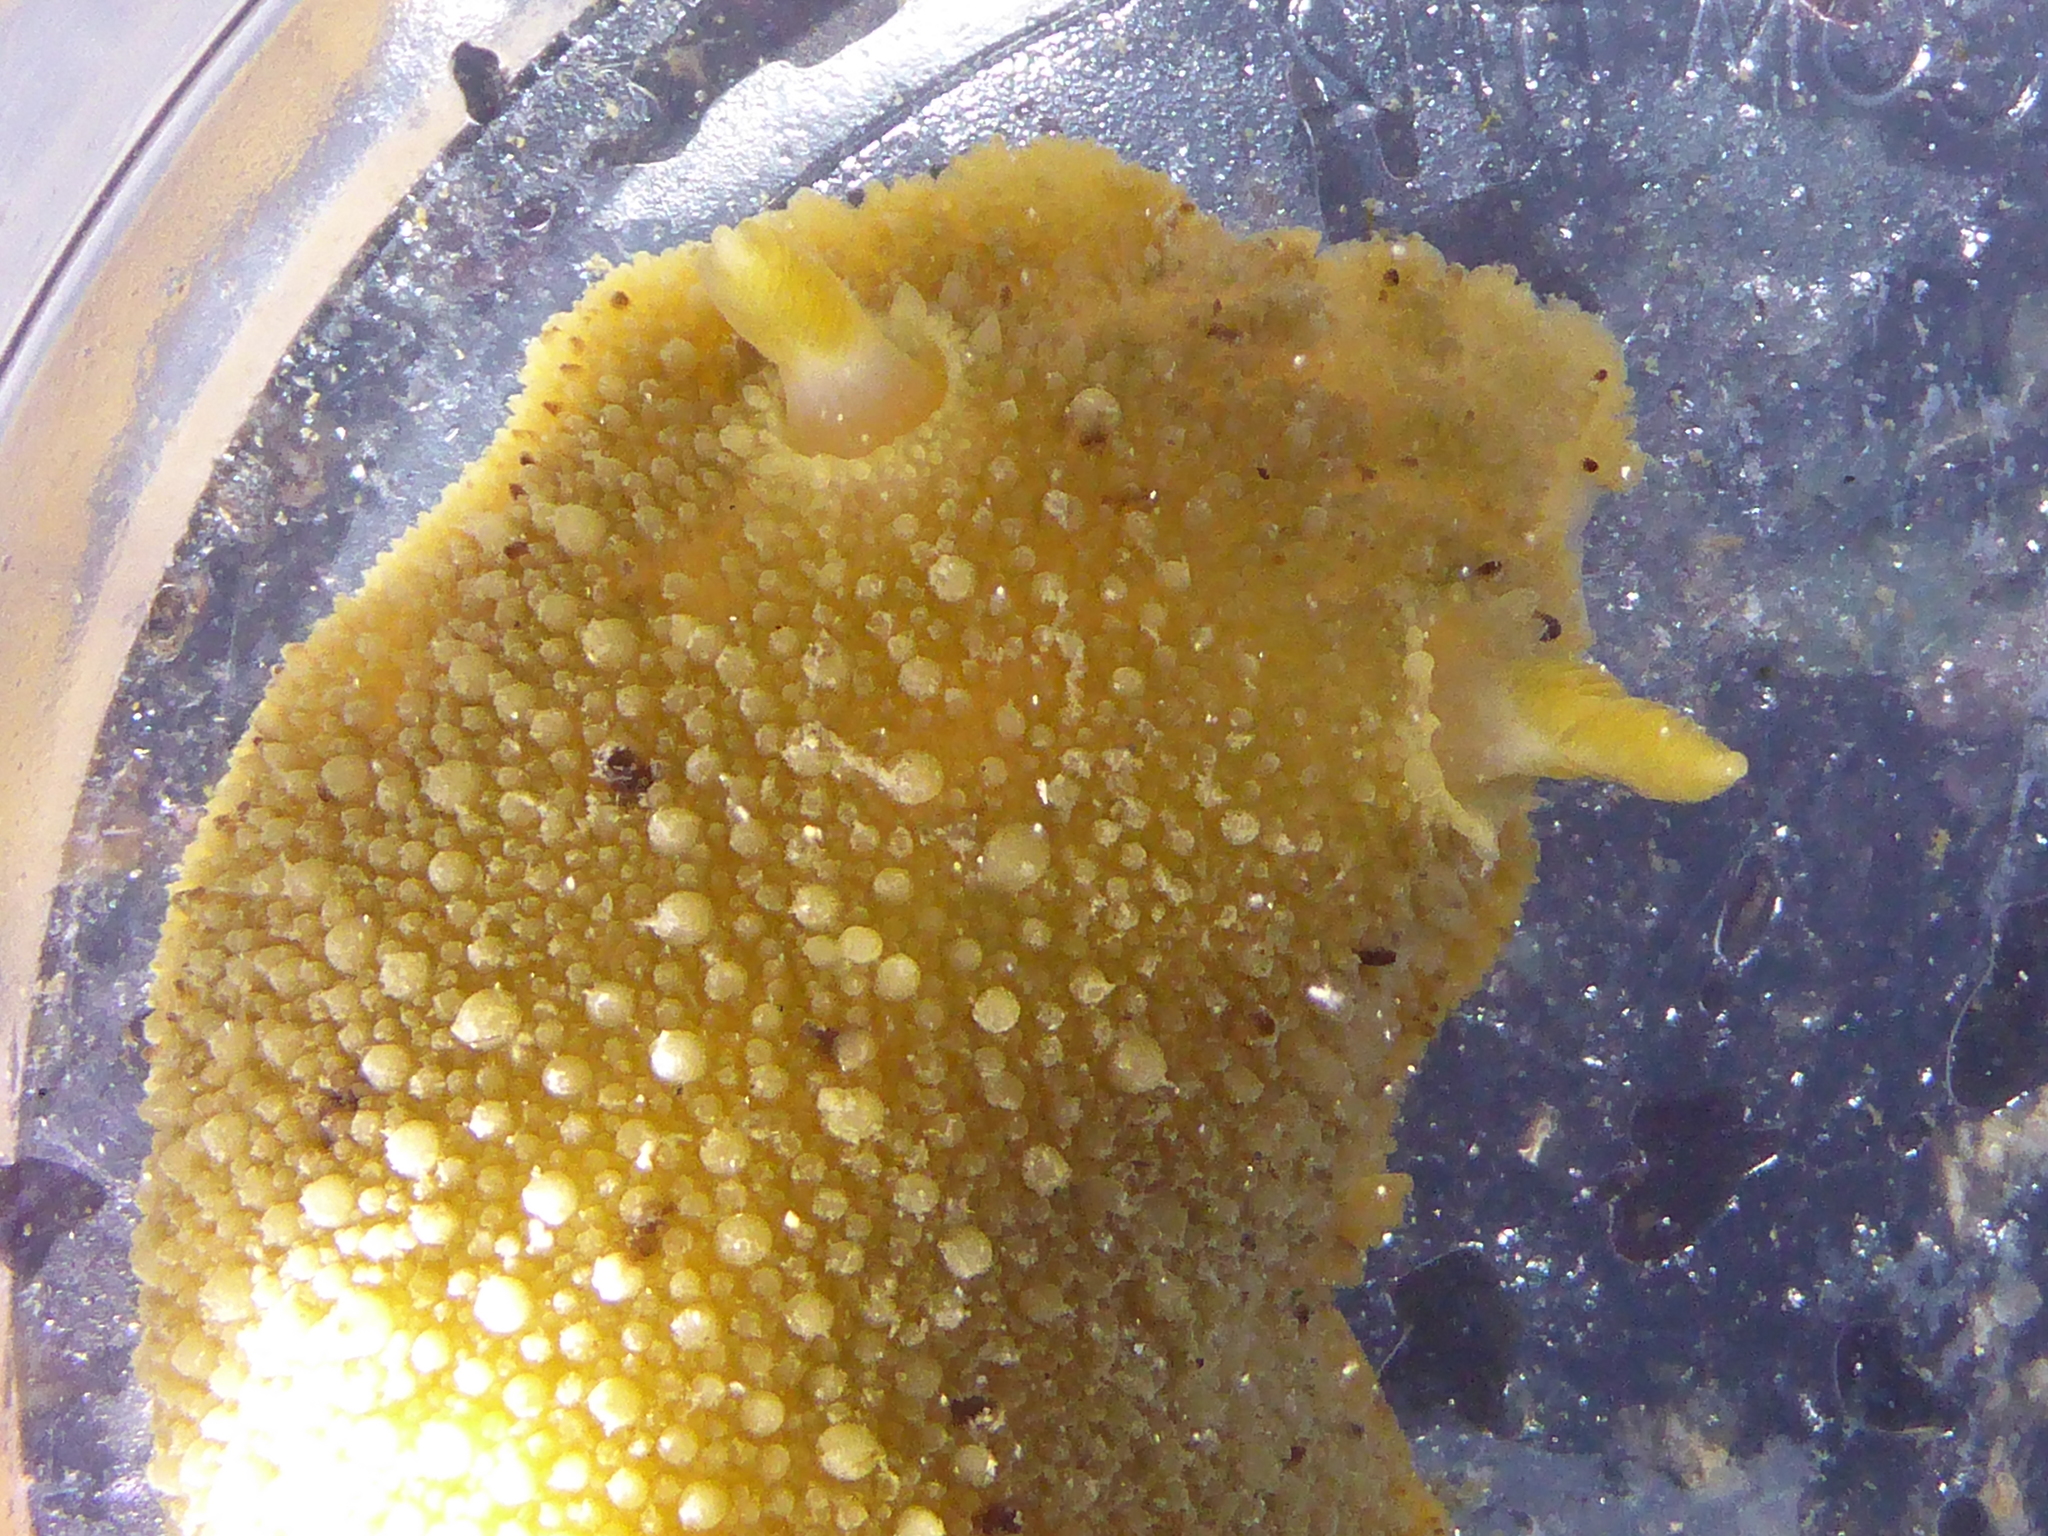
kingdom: Animalia
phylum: Mollusca
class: Gastropoda
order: Nudibranchia
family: Dorididae
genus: Doris
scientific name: Doris montereyensis
